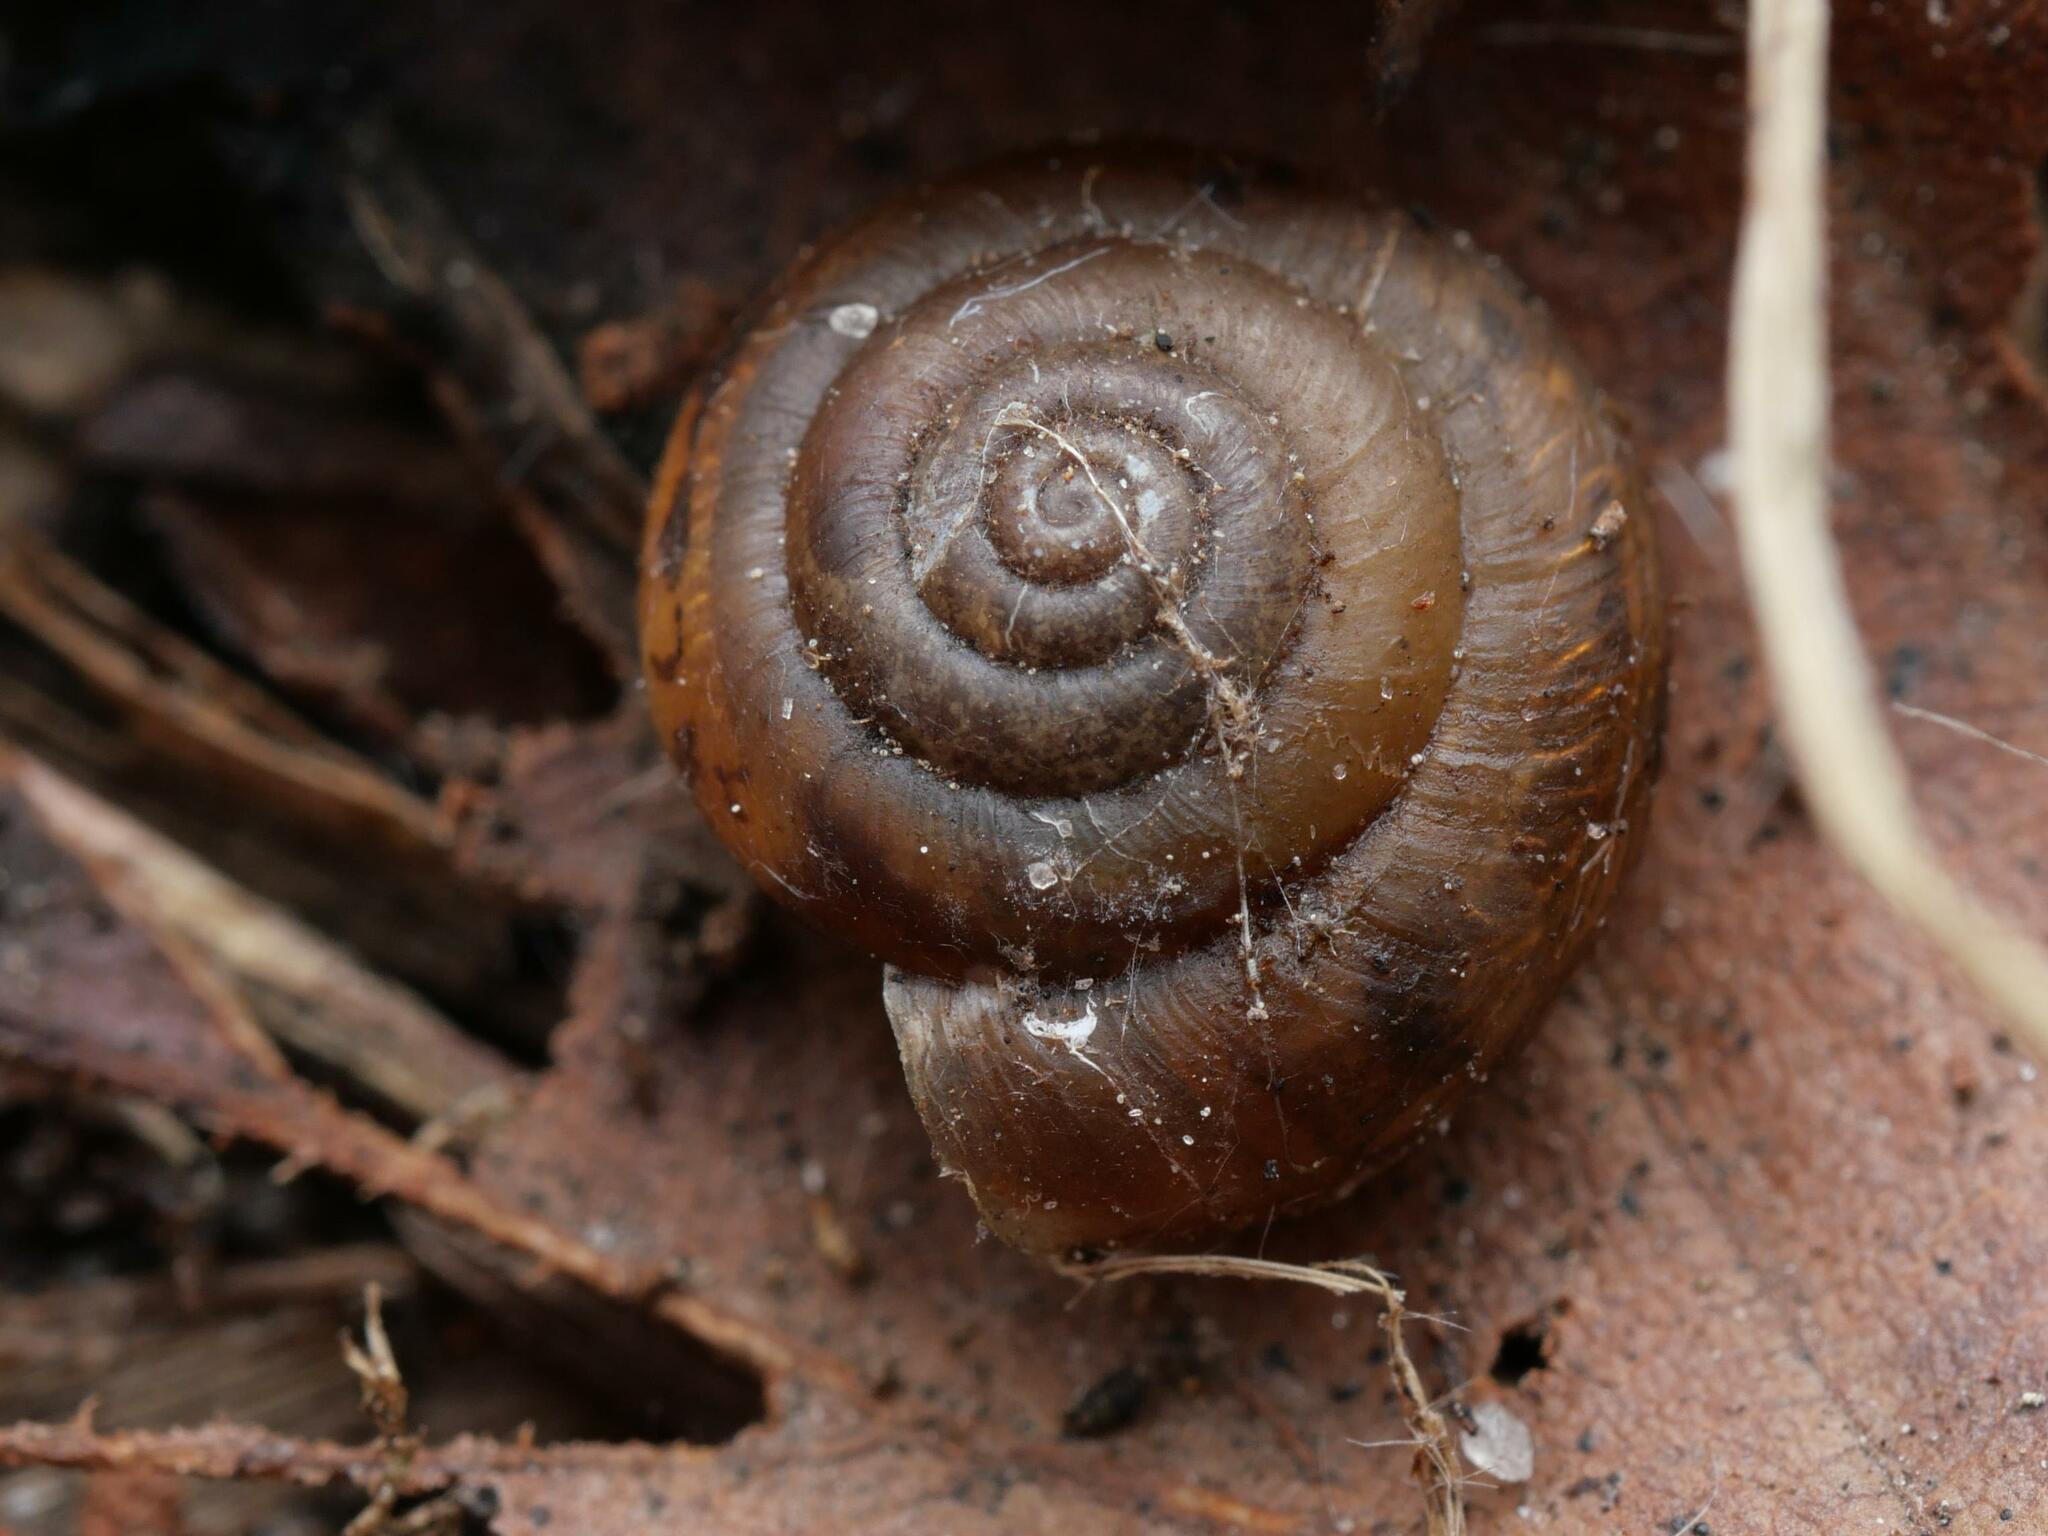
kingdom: Animalia
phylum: Mollusca
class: Gastropoda
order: Stylommatophora
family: Hygromiidae
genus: Trochulus
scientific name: Trochulus hispidus
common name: Hairy snail
